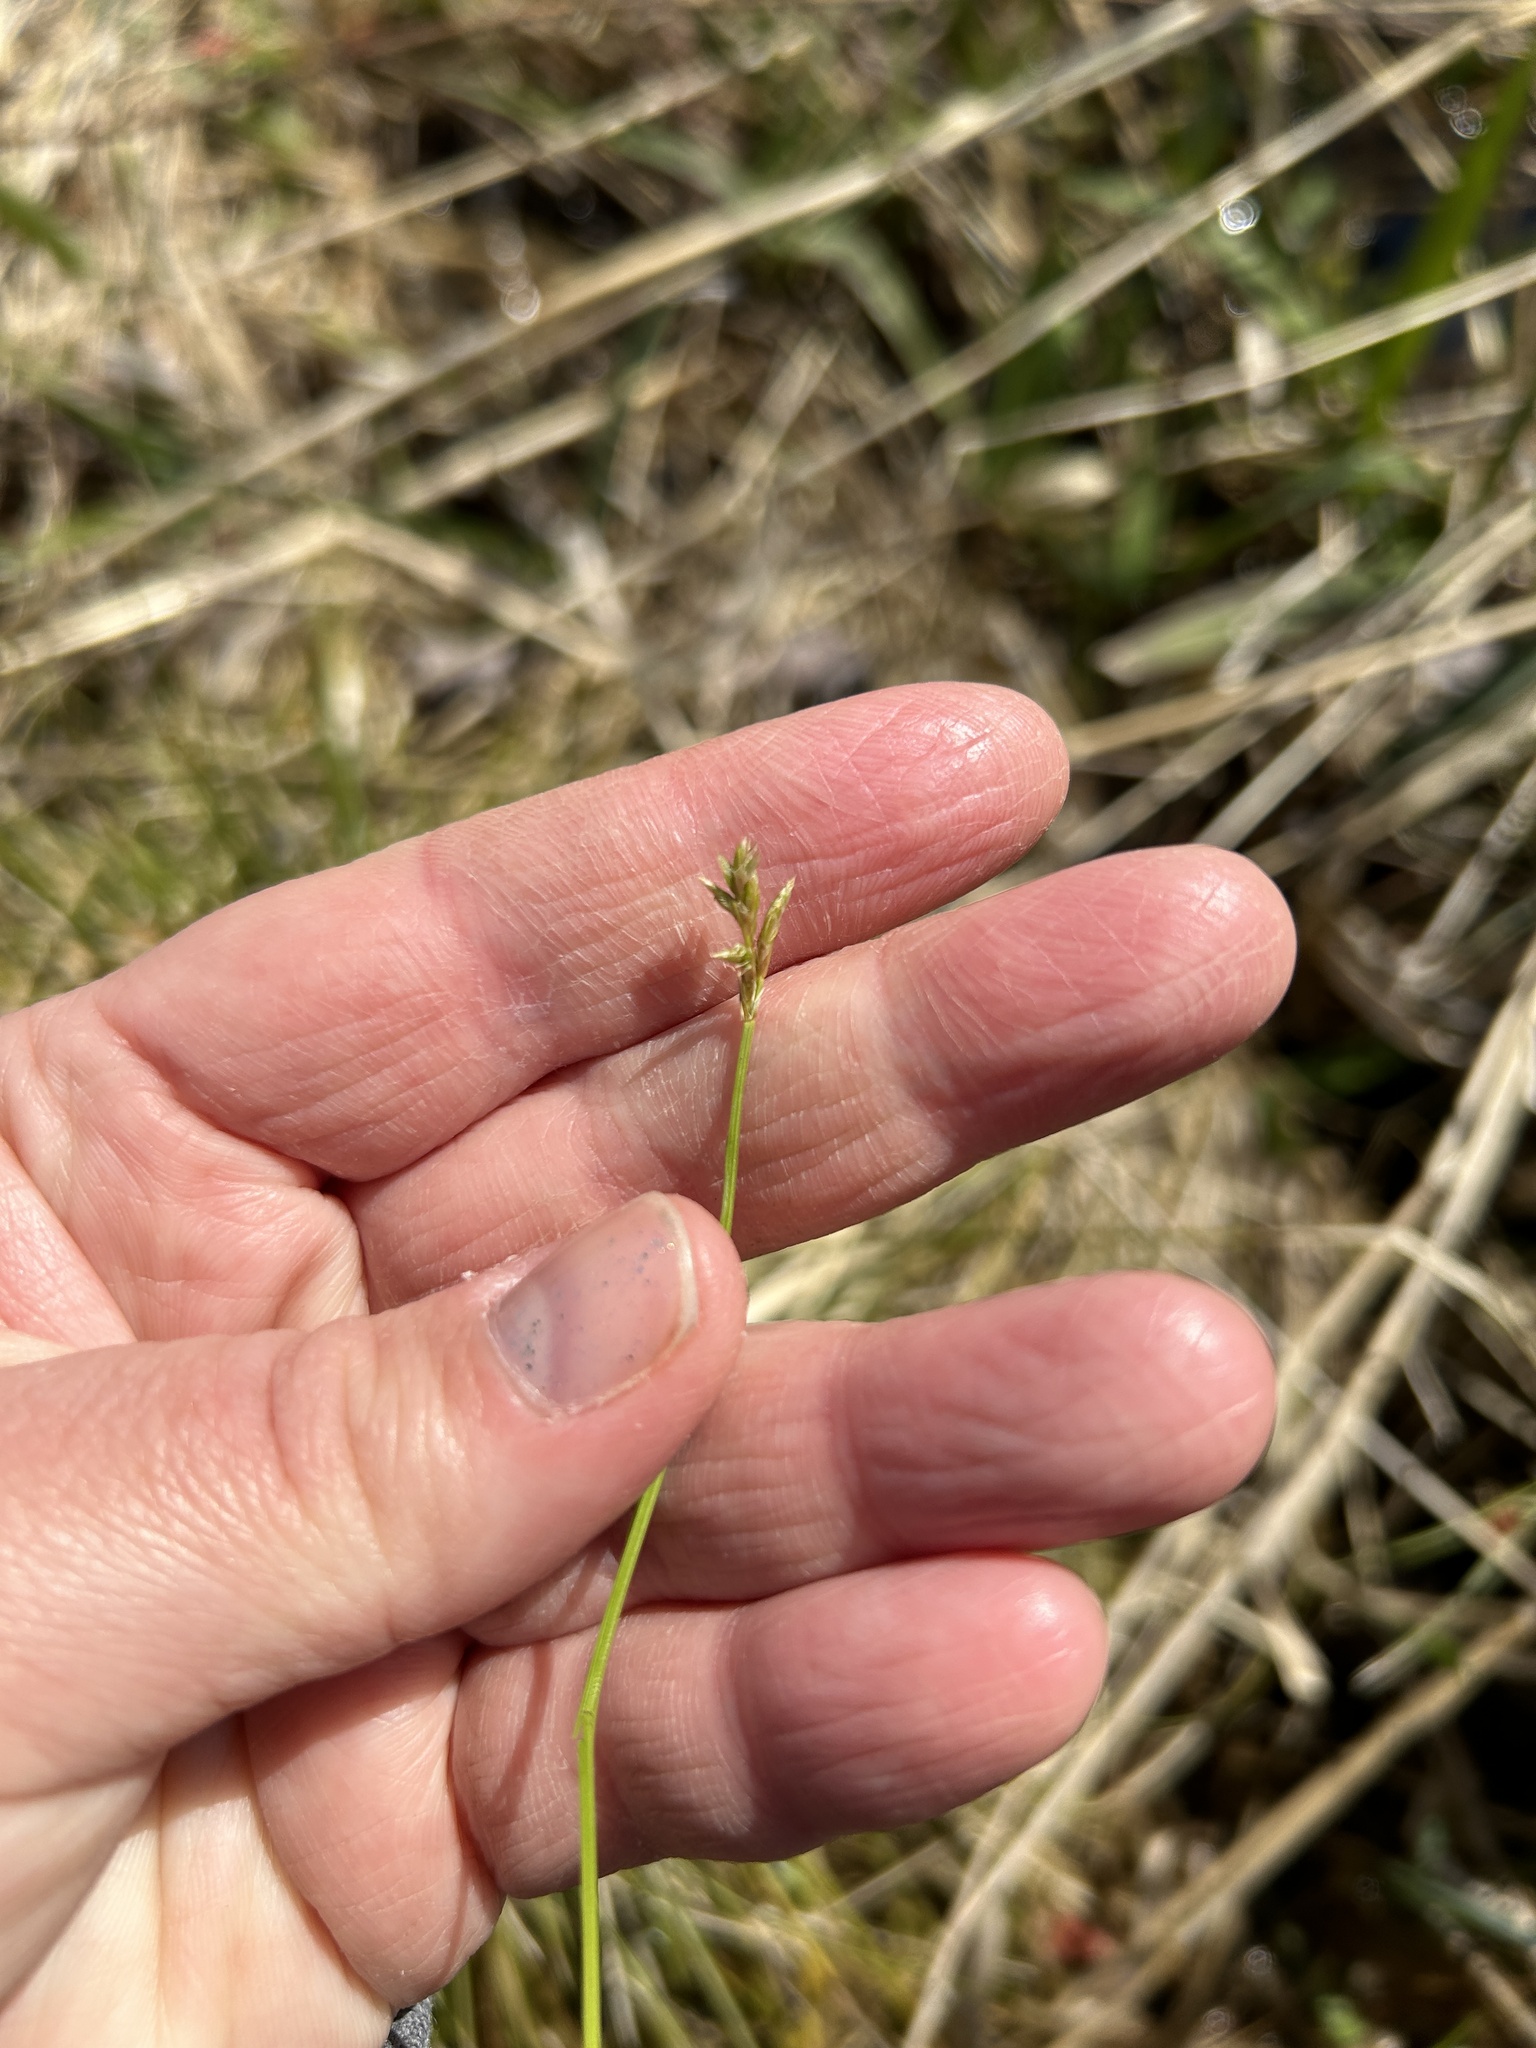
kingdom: Plantae
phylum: Tracheophyta
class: Liliopsida
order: Poales
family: Cyperaceae
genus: Carex
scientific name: Carex bromoides
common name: Brome hummock sedge
